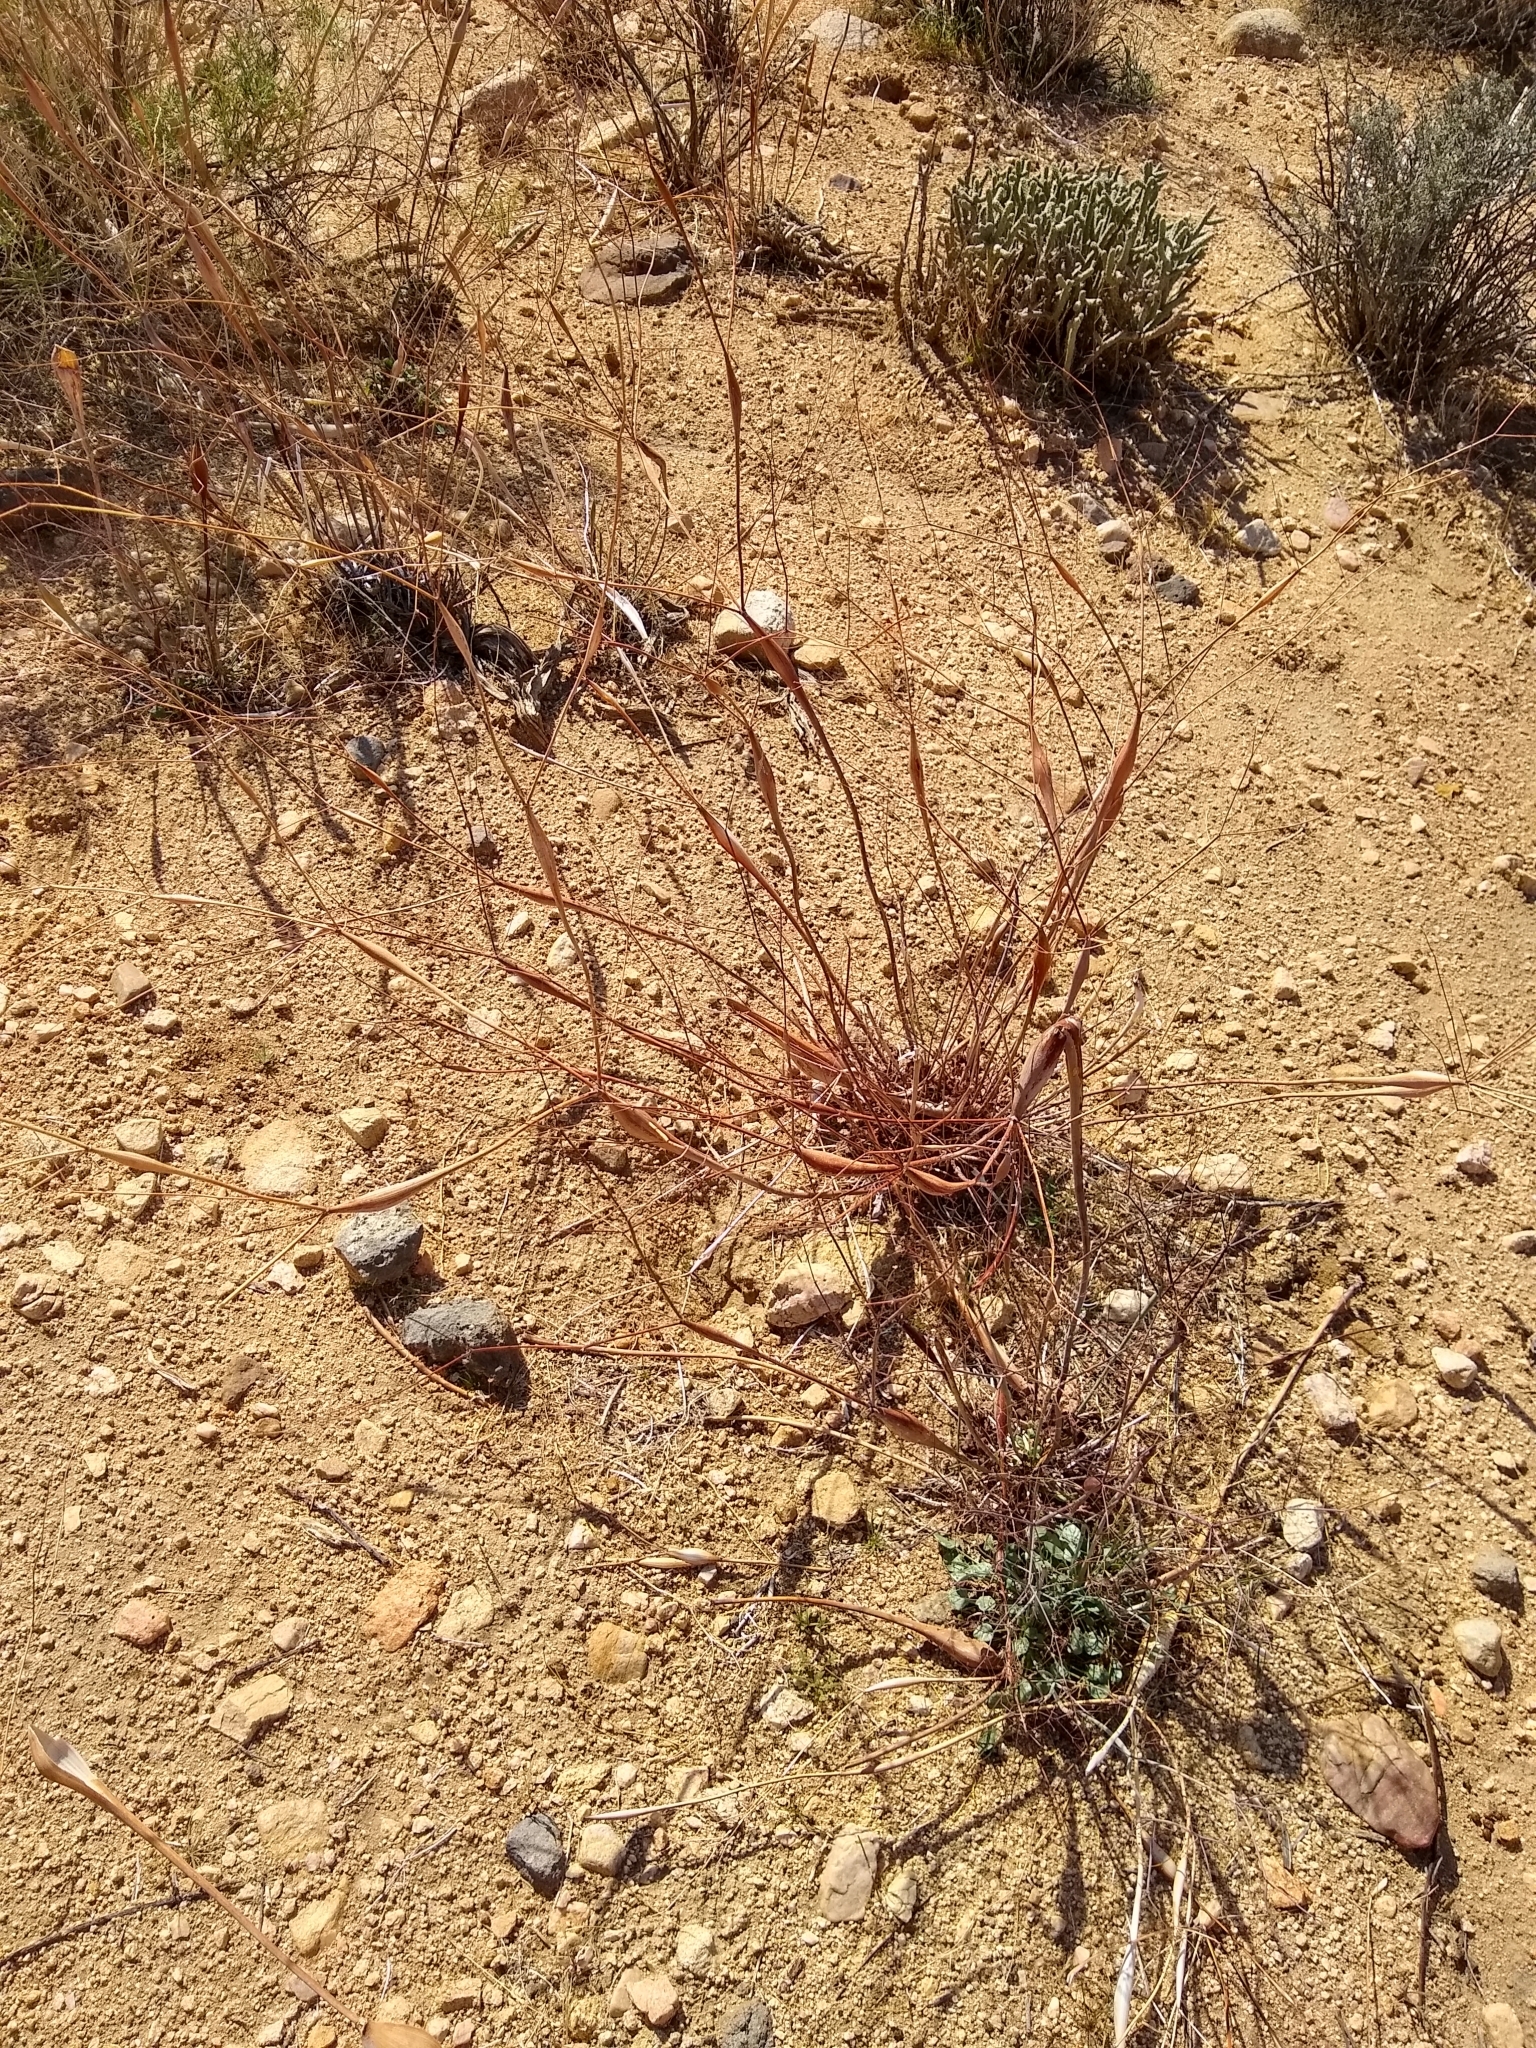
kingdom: Plantae
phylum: Tracheophyta
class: Magnoliopsida
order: Caryophyllales
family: Polygonaceae
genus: Eriogonum
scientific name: Eriogonum inflatum
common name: Desert trumpet
